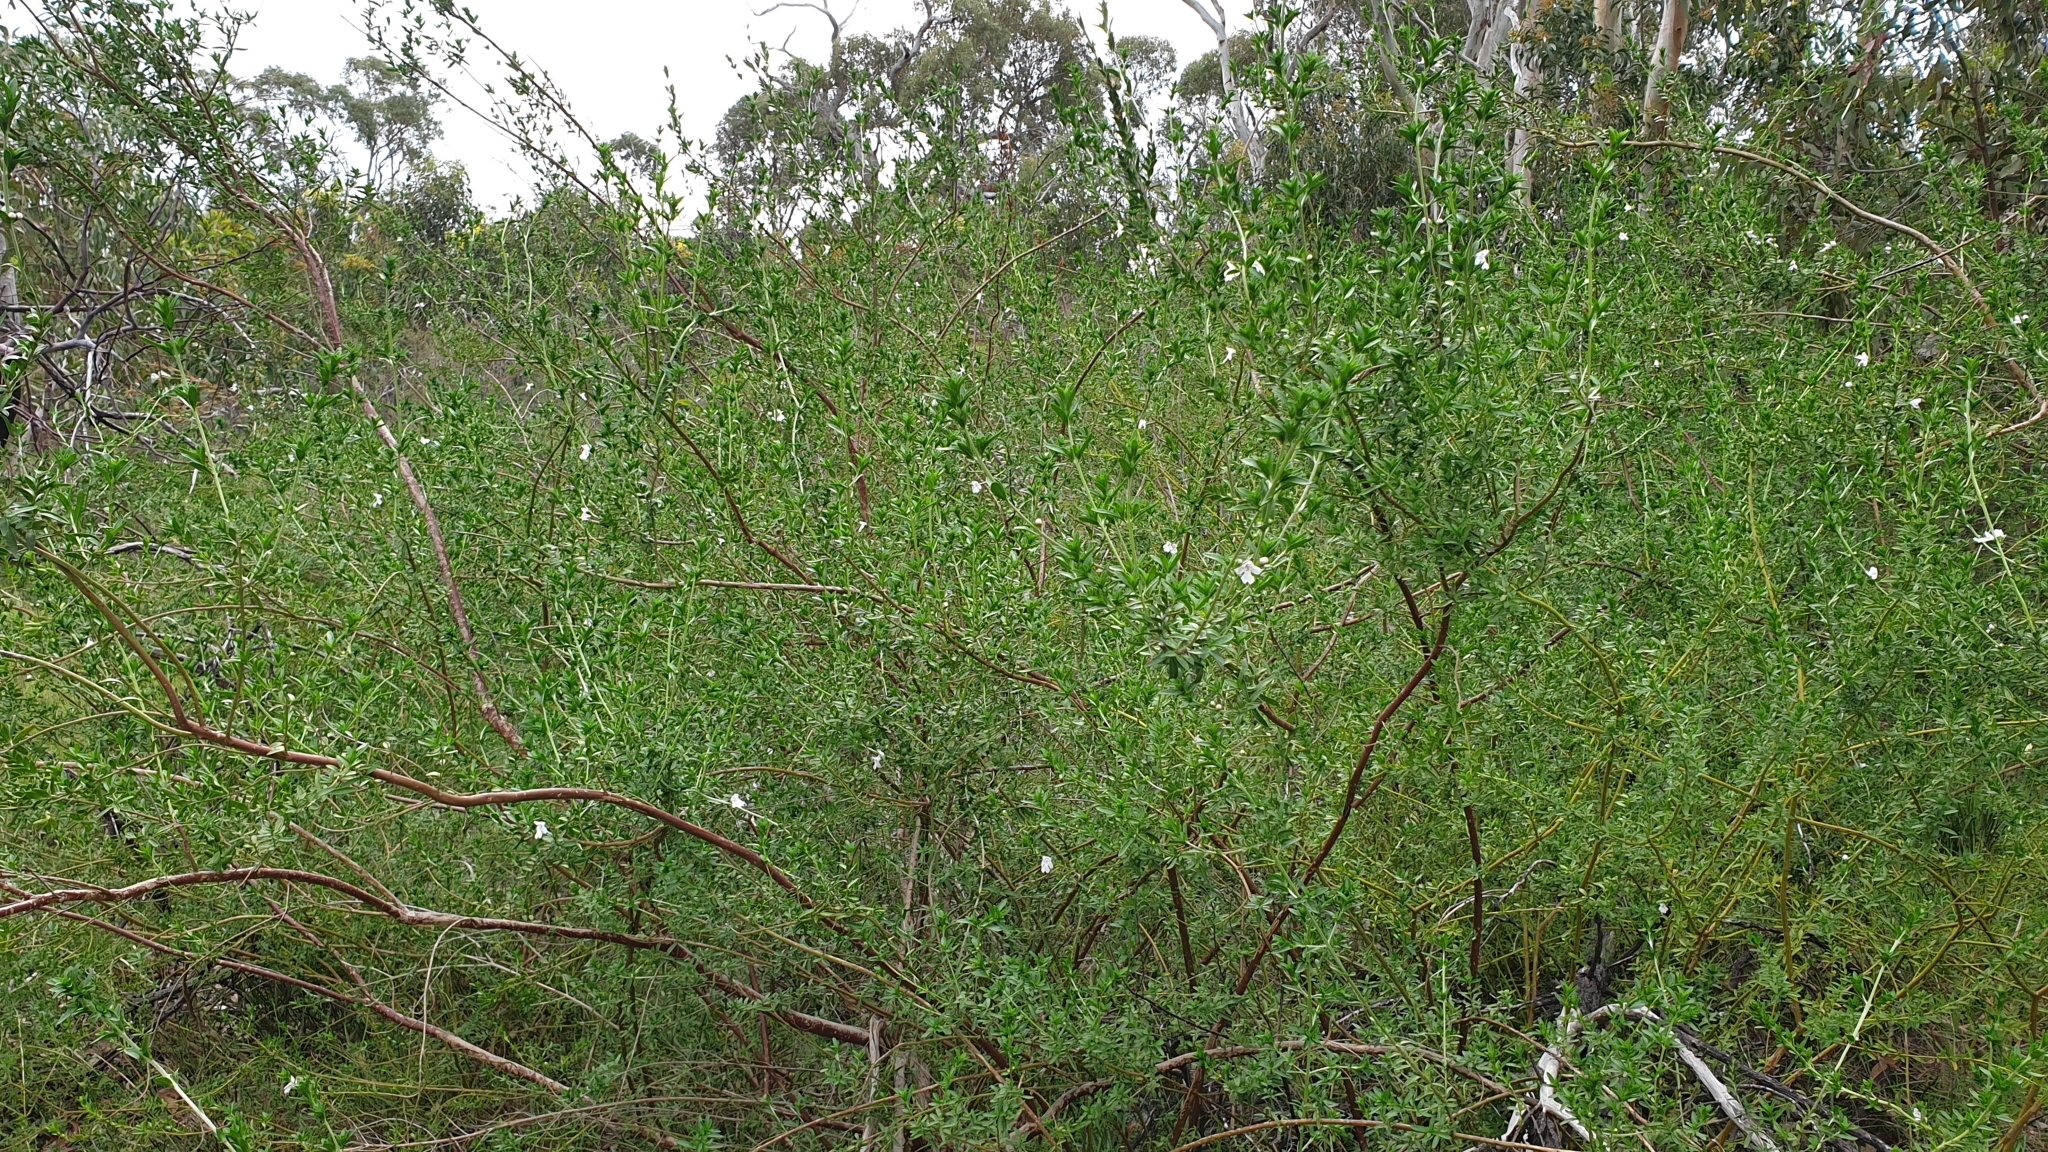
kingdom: Plantae
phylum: Tracheophyta
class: Magnoliopsida
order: Lamiales
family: Lamiaceae
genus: Prostanthera
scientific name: Prostanthera behriana
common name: Downy mintbush
